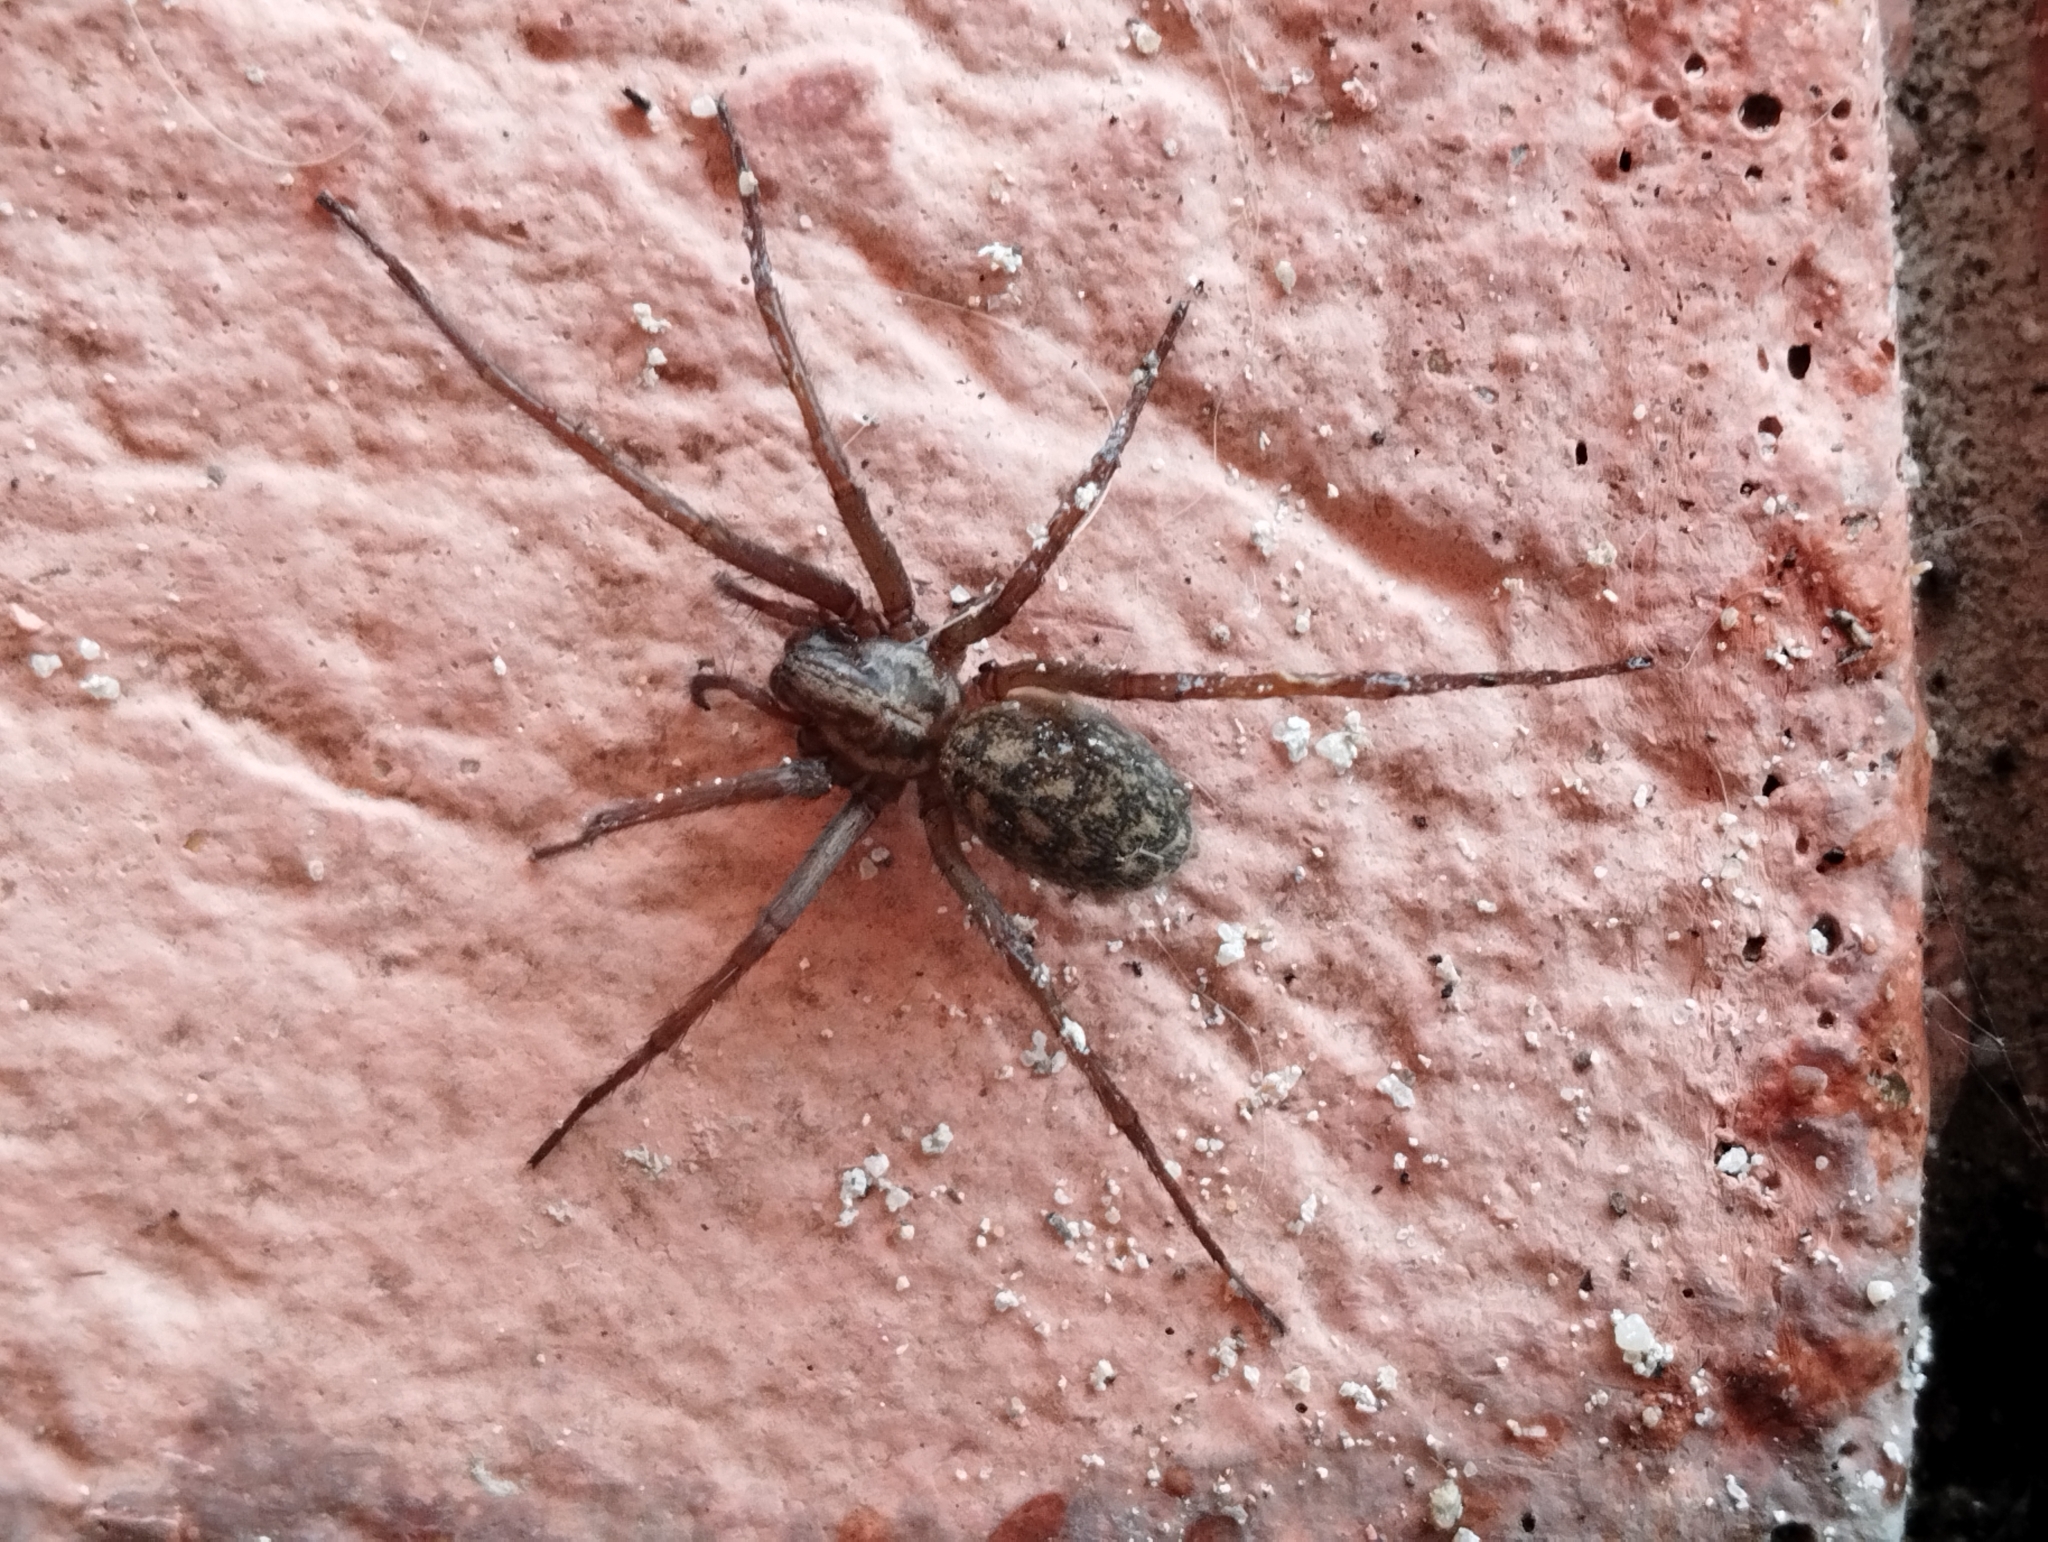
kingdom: Animalia
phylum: Arthropoda
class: Arachnida
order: Araneae
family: Agelenidae
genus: Eratigena
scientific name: Eratigena atrica
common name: Giant house spider
